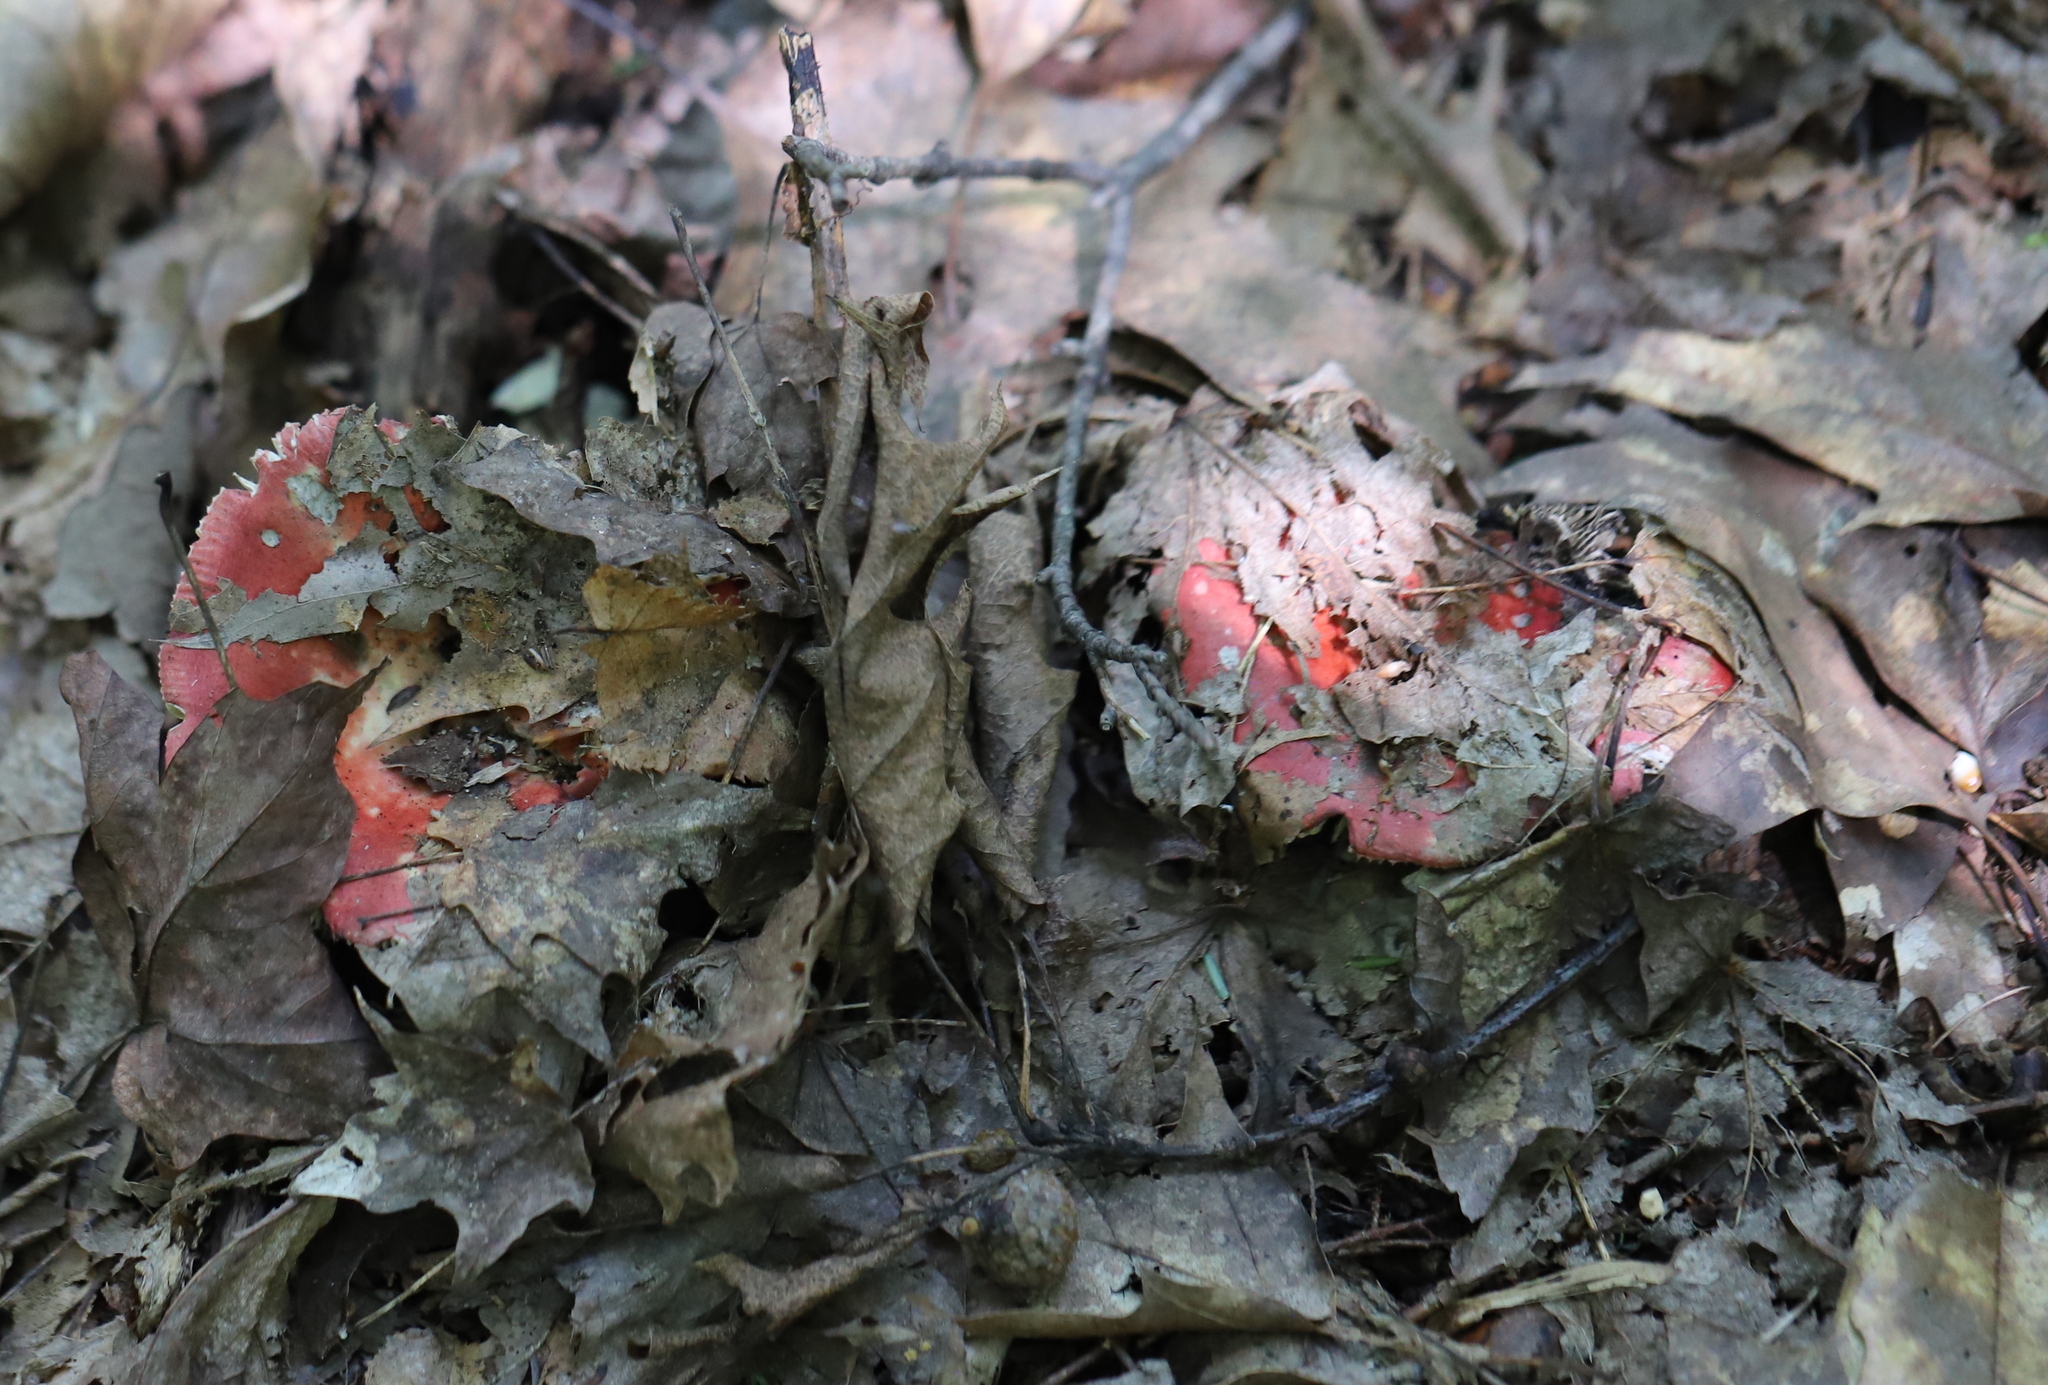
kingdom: Fungi
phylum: Basidiomycota
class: Agaricomycetes
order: Russulales
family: Russulaceae
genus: Russula
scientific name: Russula
